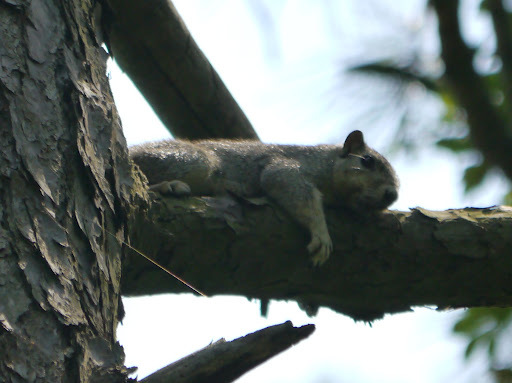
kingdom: Animalia
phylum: Chordata
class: Mammalia
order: Rodentia
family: Sciuridae
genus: Sciurus
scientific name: Sciurus niger
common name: Fox squirrel
